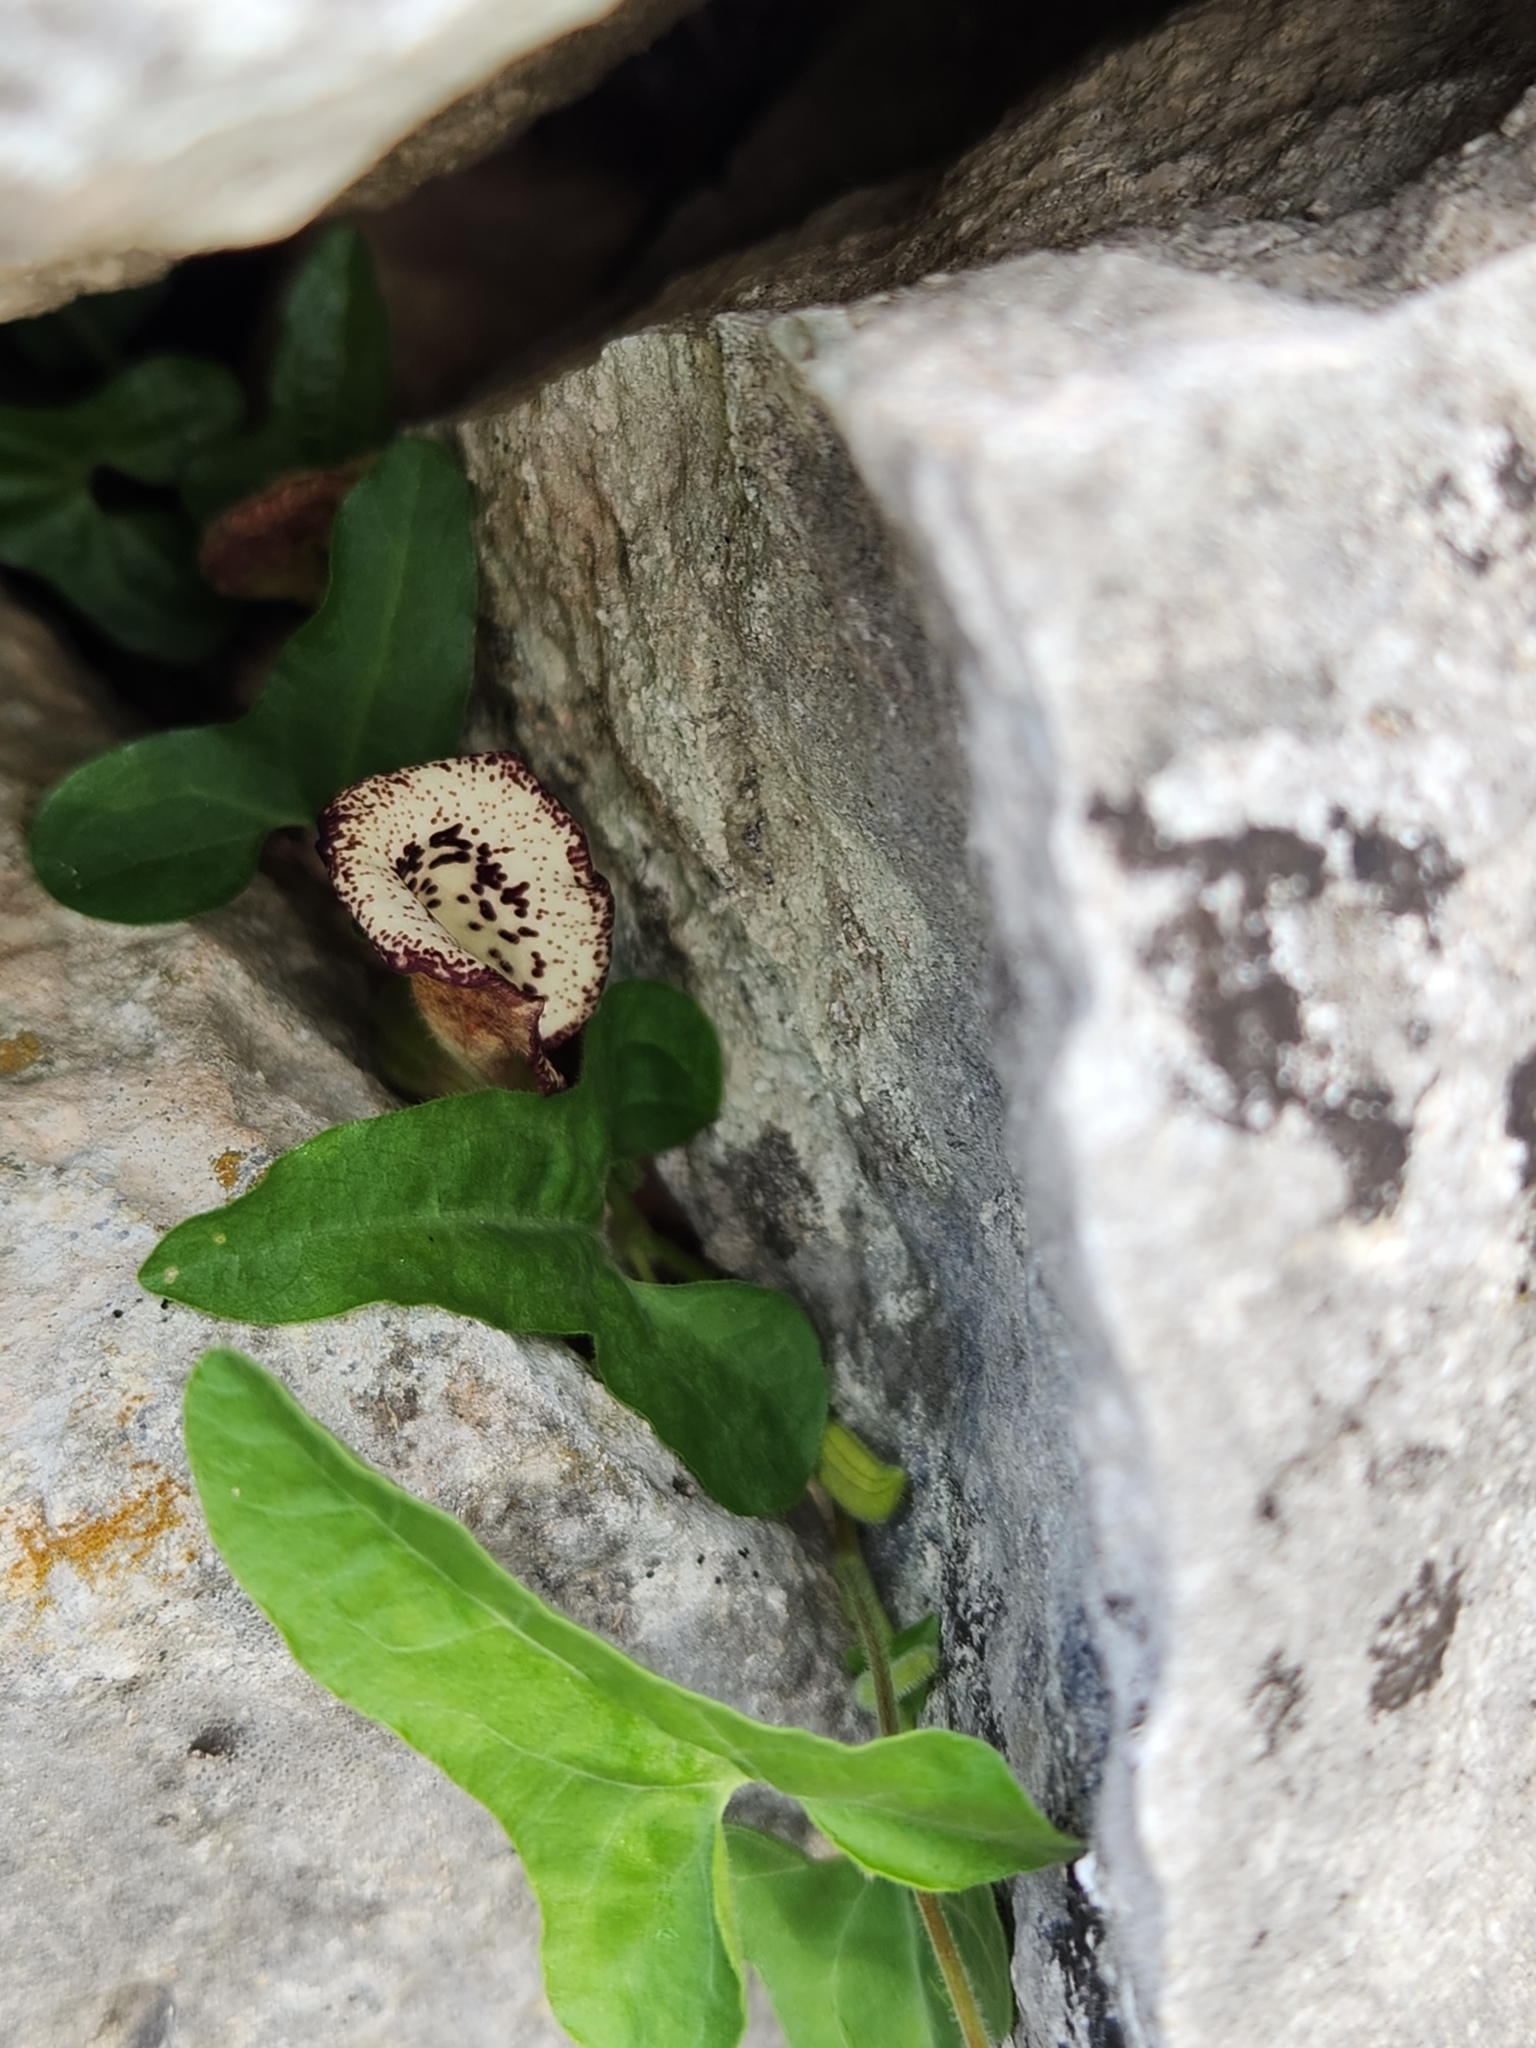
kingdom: Plantae
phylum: Tracheophyta
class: Magnoliopsida
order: Piperales
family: Aristolochiaceae
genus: Aristolochia
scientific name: Aristolochia coryi
